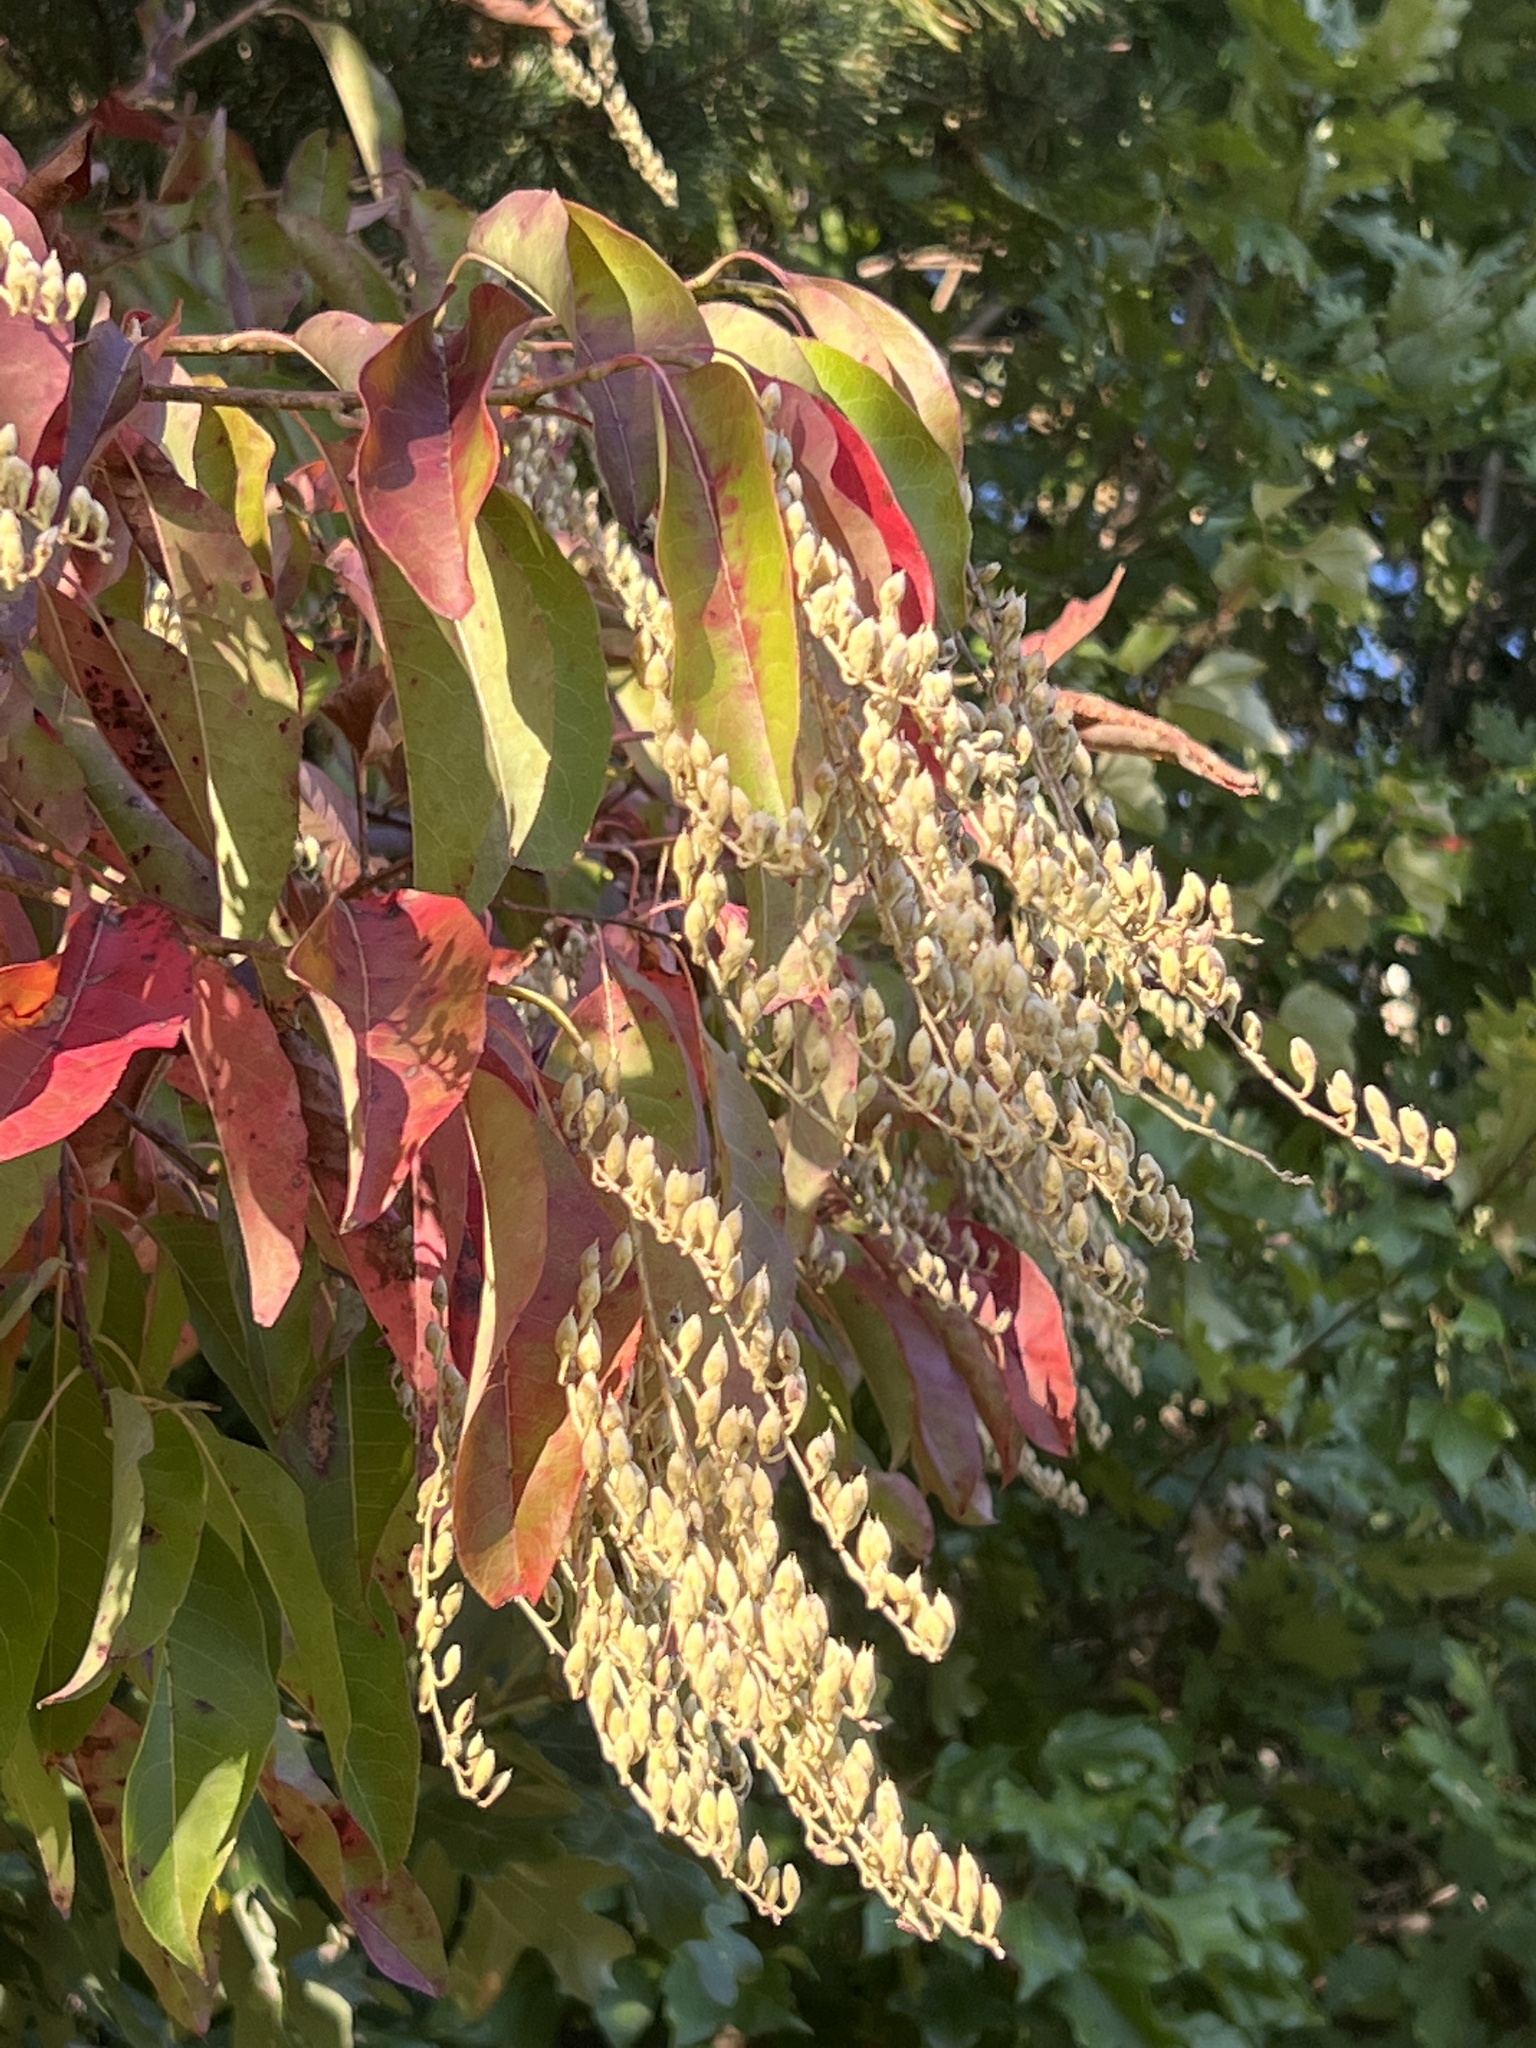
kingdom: Plantae
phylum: Tracheophyta
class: Magnoliopsida
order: Ericales
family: Ericaceae
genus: Oxydendrum
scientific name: Oxydendrum arboreum
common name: Sourwood
